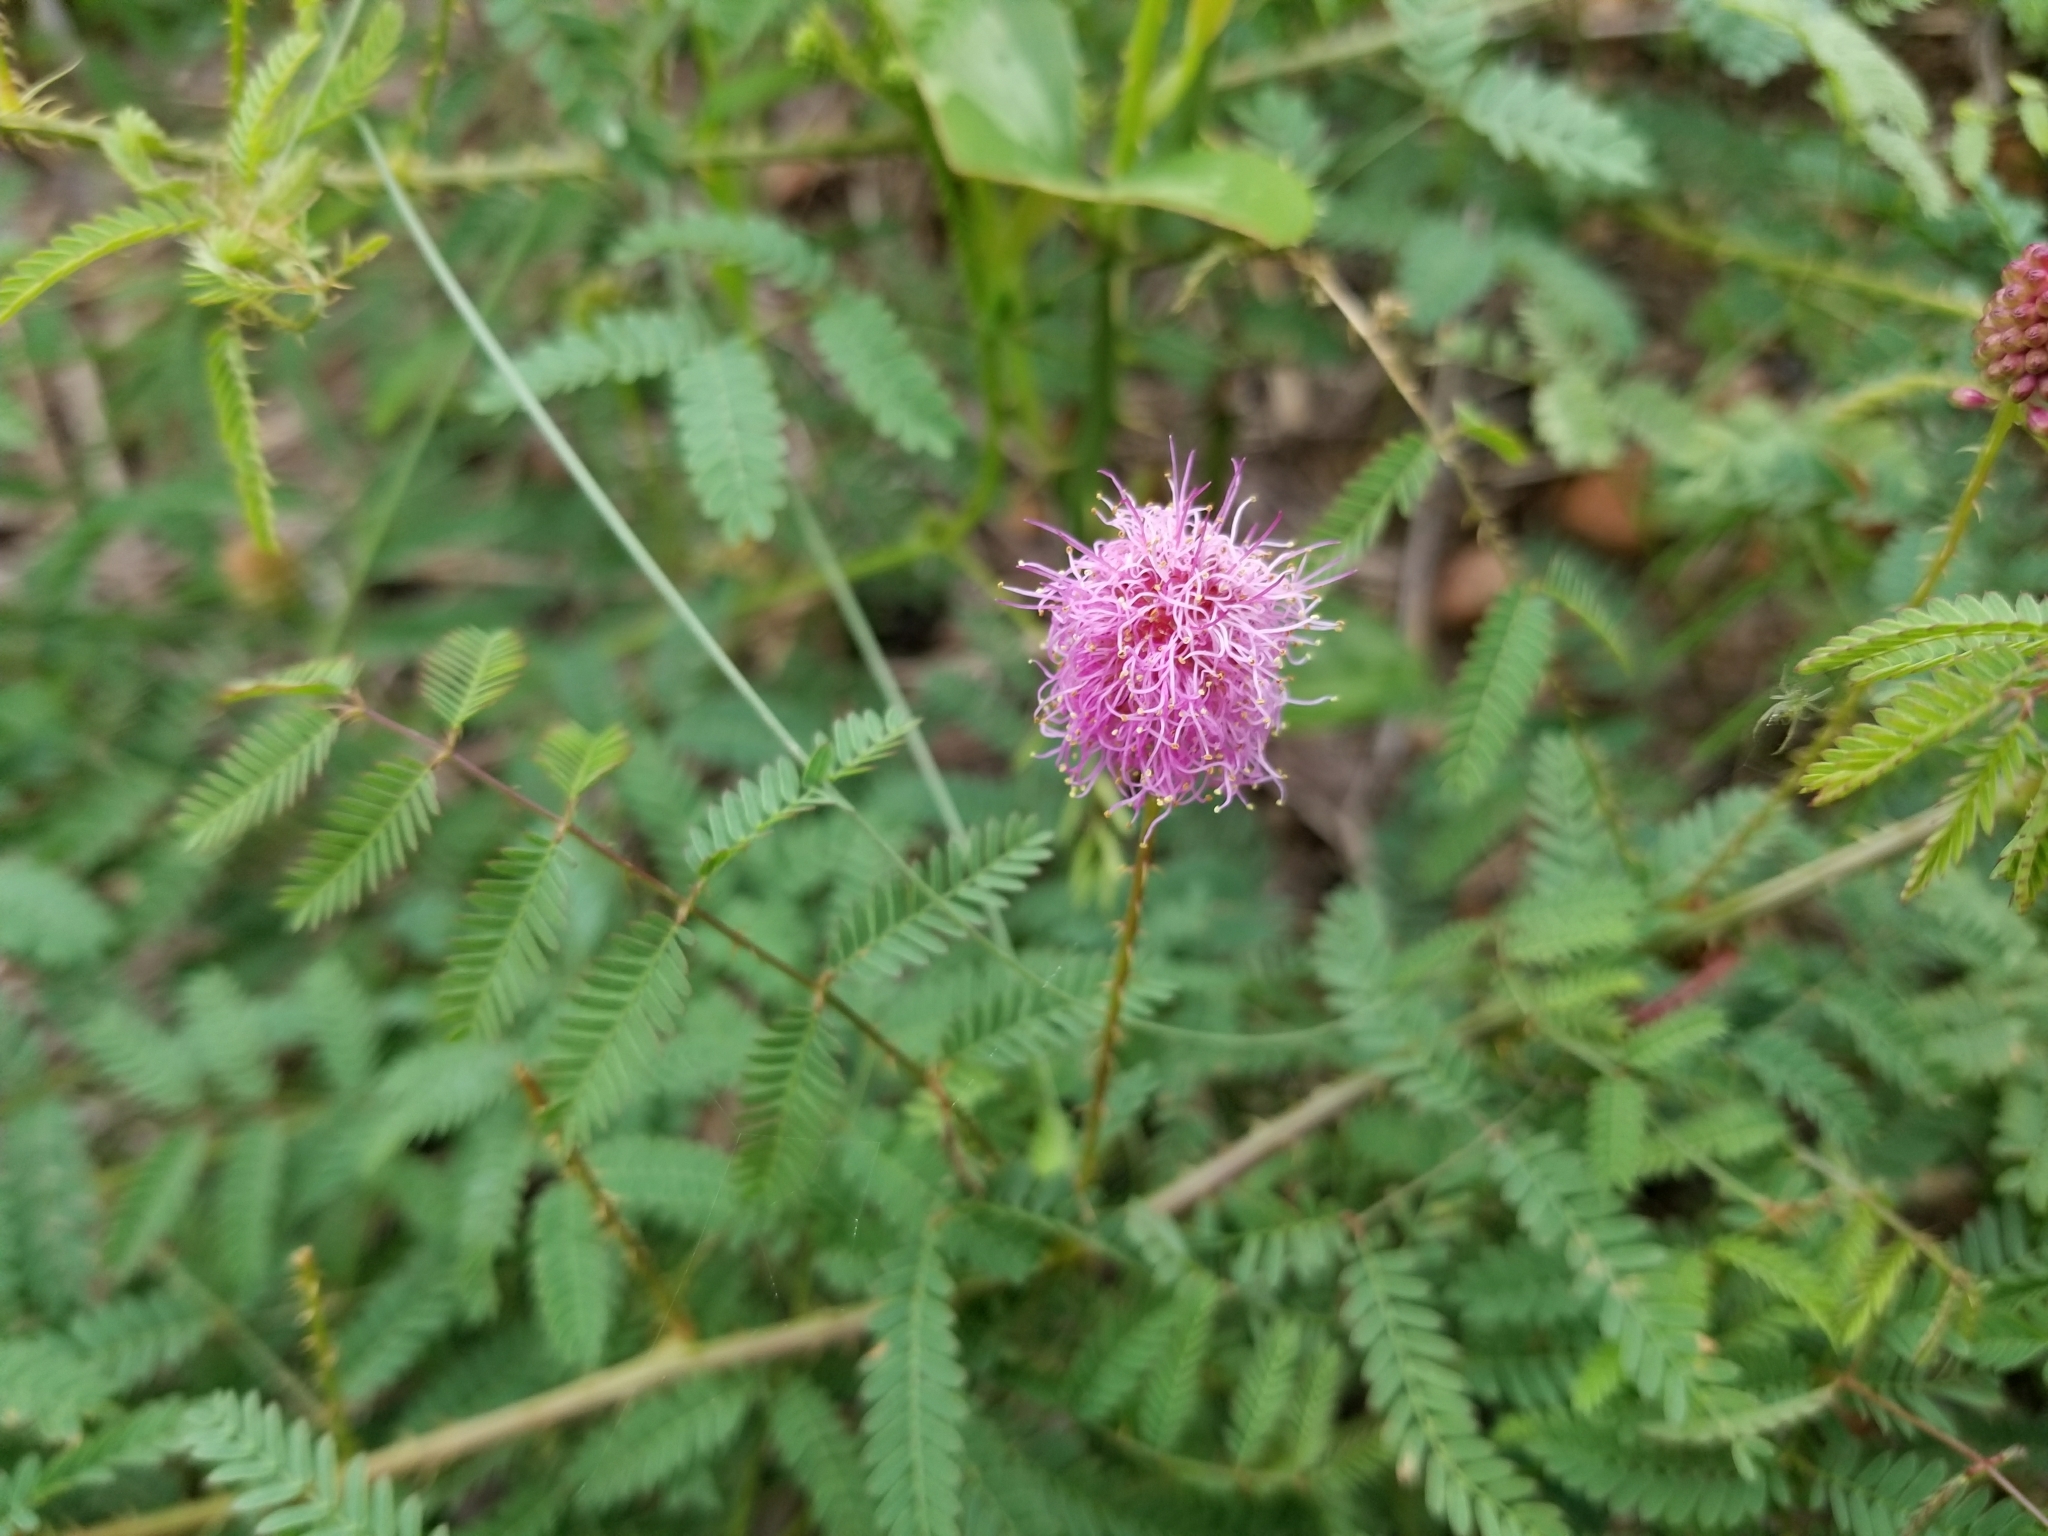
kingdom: Plantae
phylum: Tracheophyta
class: Magnoliopsida
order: Fabales
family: Fabaceae
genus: Mimosa
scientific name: Mimosa quadrivalvis
